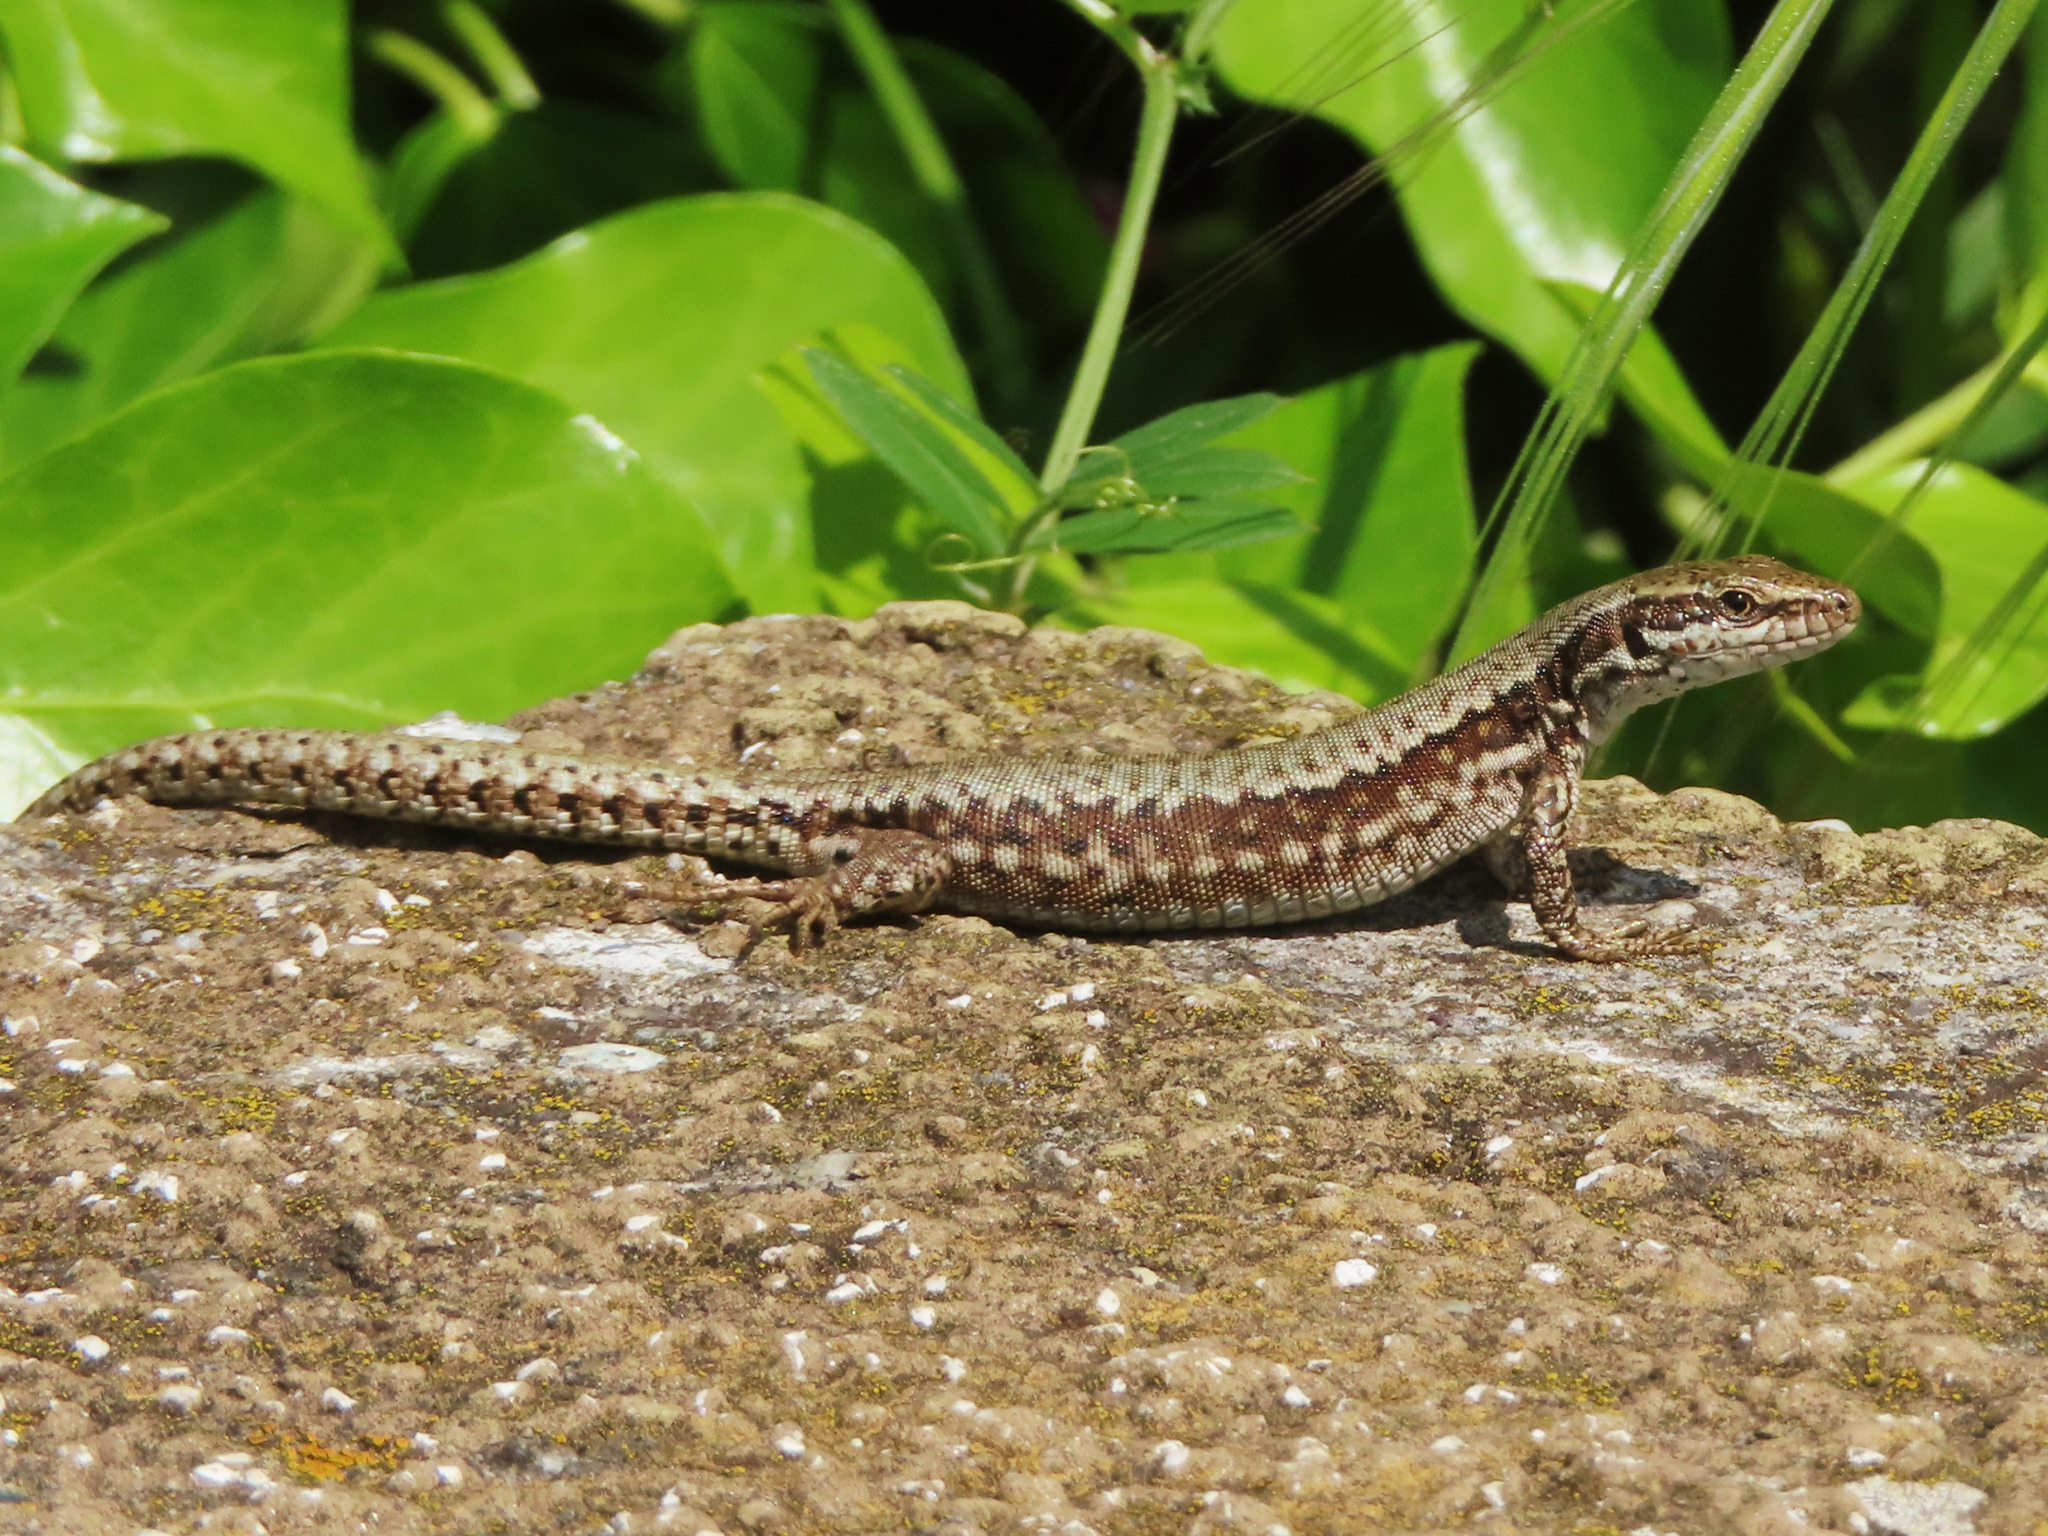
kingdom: Animalia
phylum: Chordata
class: Squamata
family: Lacertidae
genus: Podarcis
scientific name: Podarcis muralis
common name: Common wall lizard
